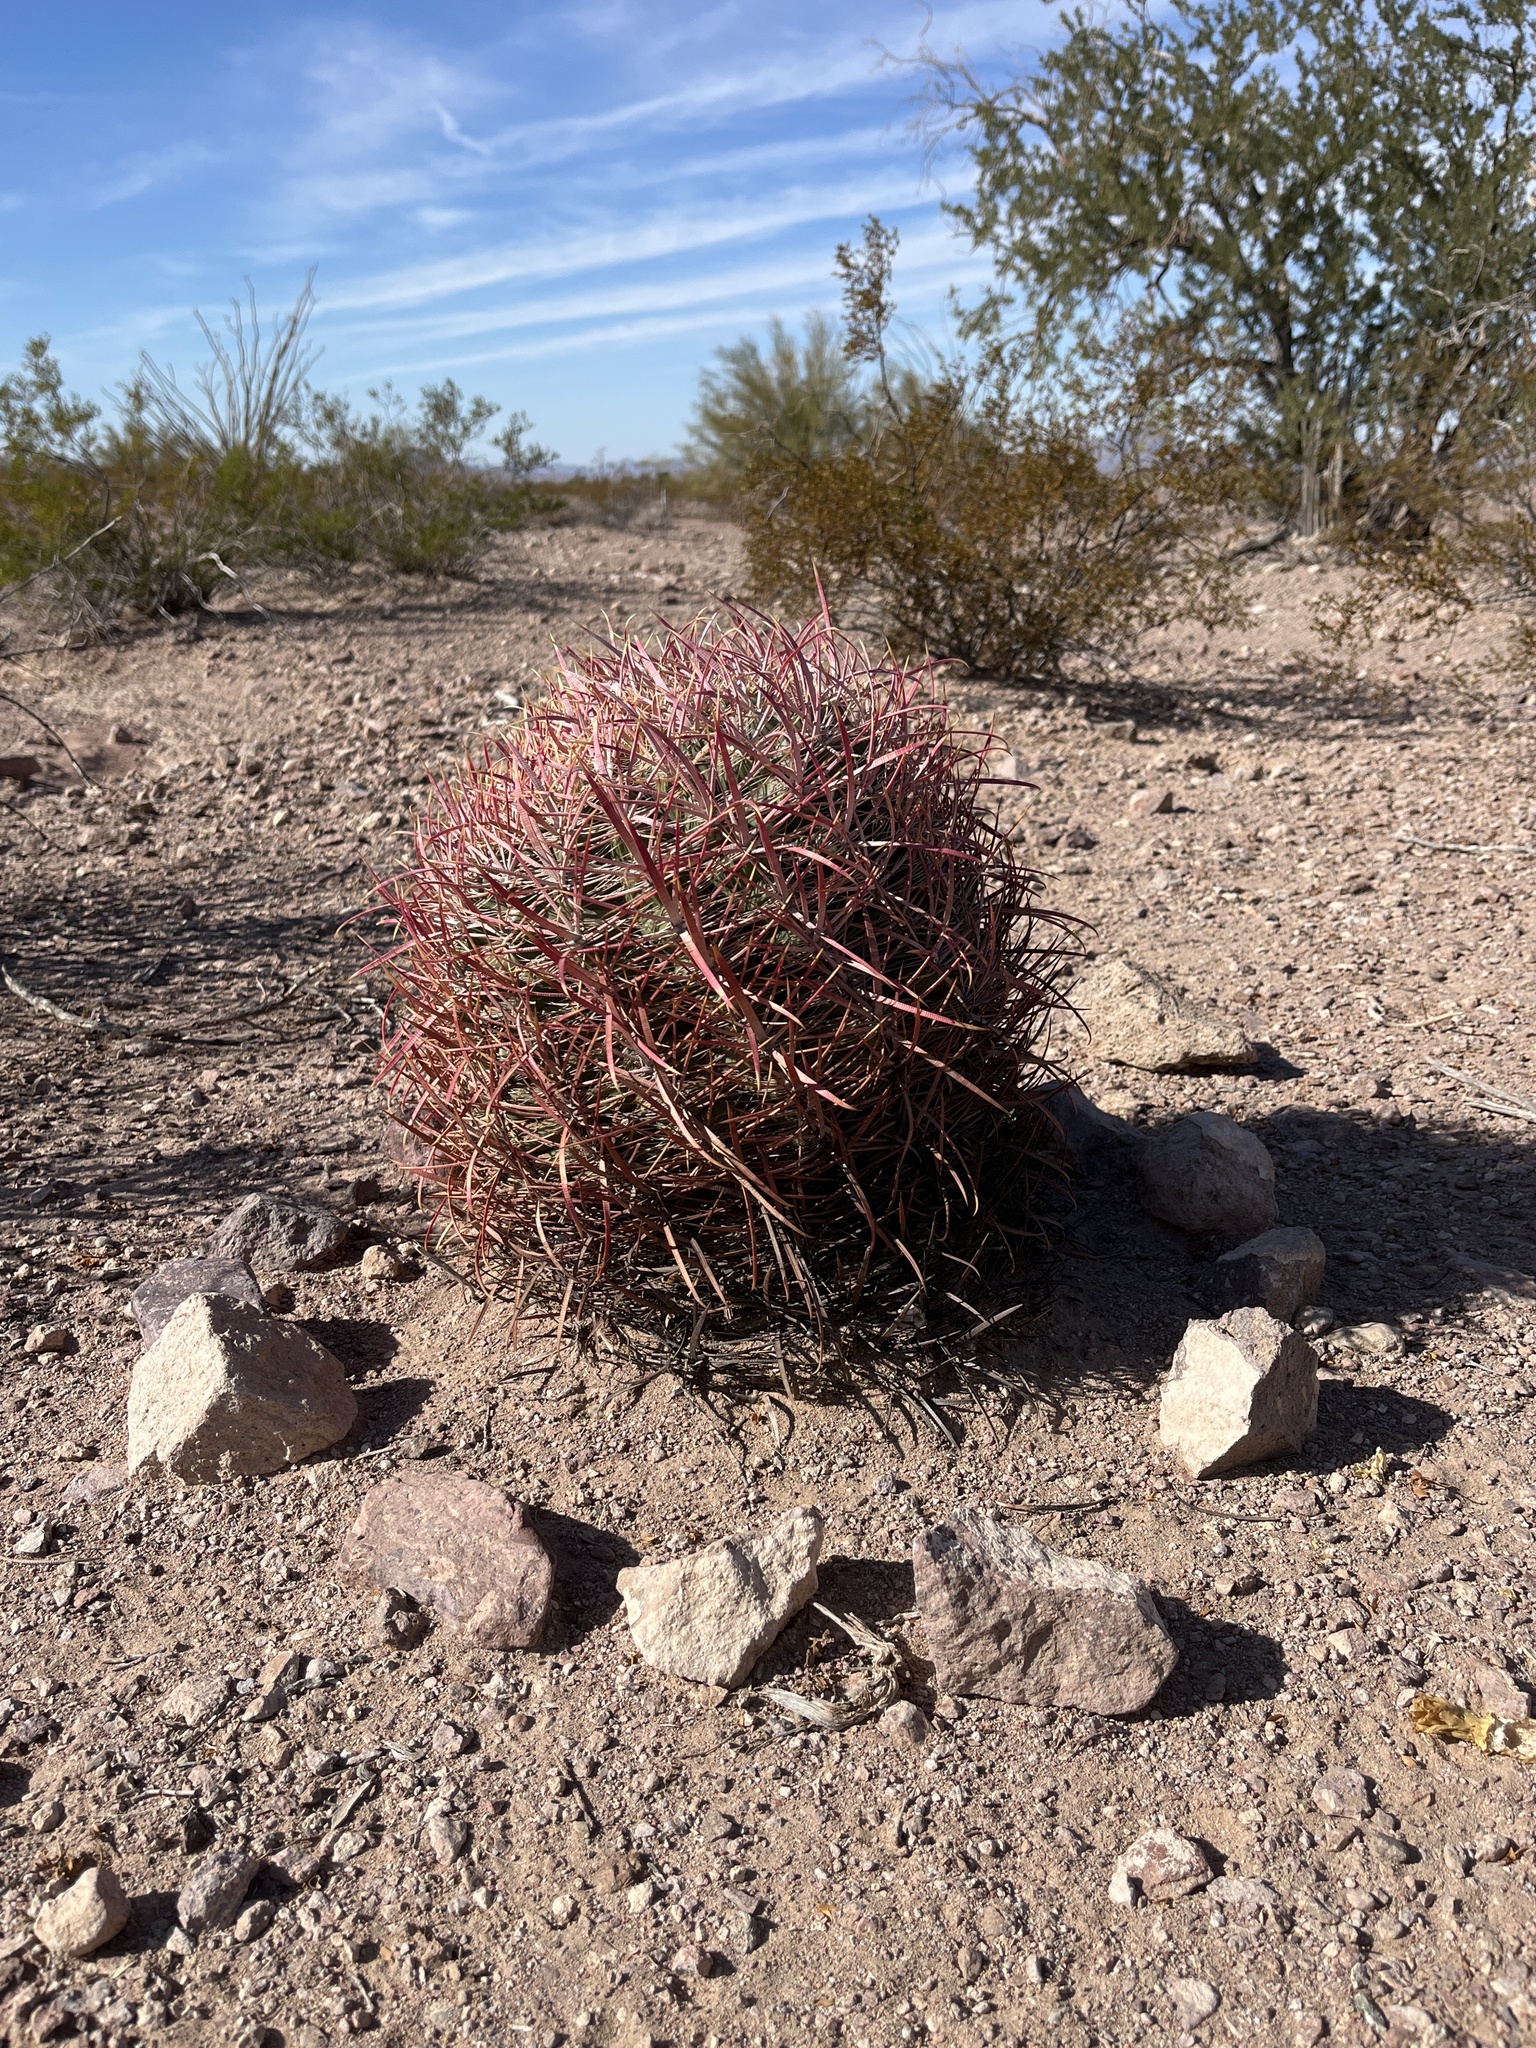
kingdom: Plantae
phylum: Tracheophyta
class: Magnoliopsida
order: Caryophyllales
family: Cactaceae
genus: Ferocactus
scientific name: Ferocactus cylindraceus
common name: California barrel cactus
